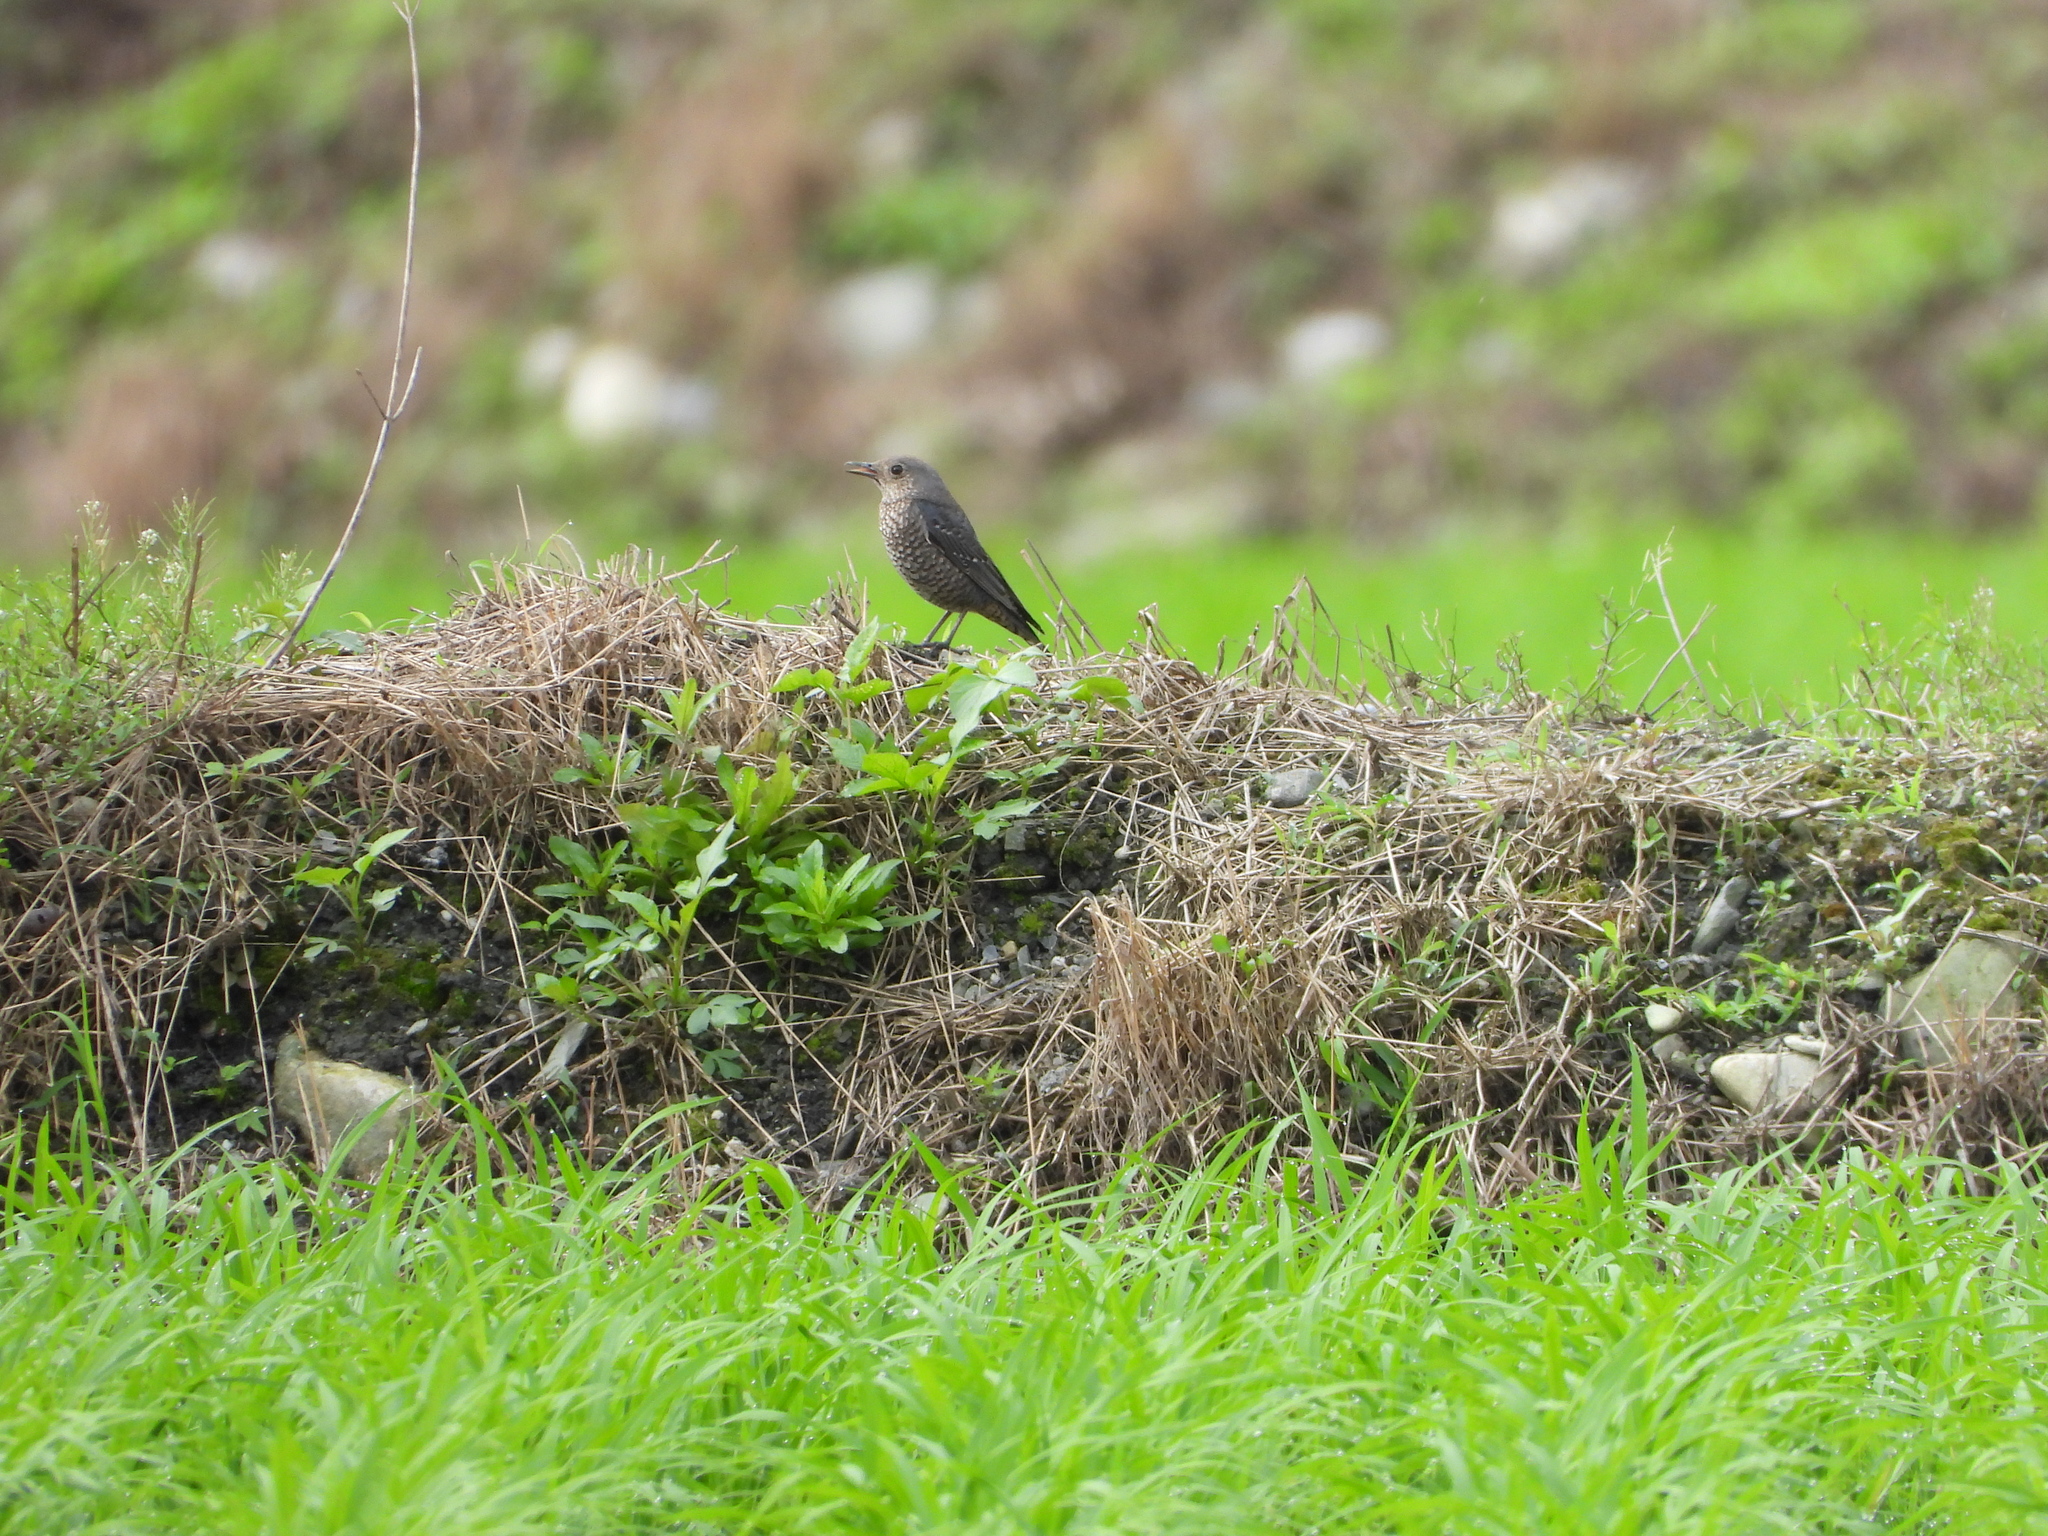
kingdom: Animalia
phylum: Chordata
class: Aves
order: Passeriformes
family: Muscicapidae
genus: Monticola
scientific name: Monticola solitarius
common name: Blue rock thrush
